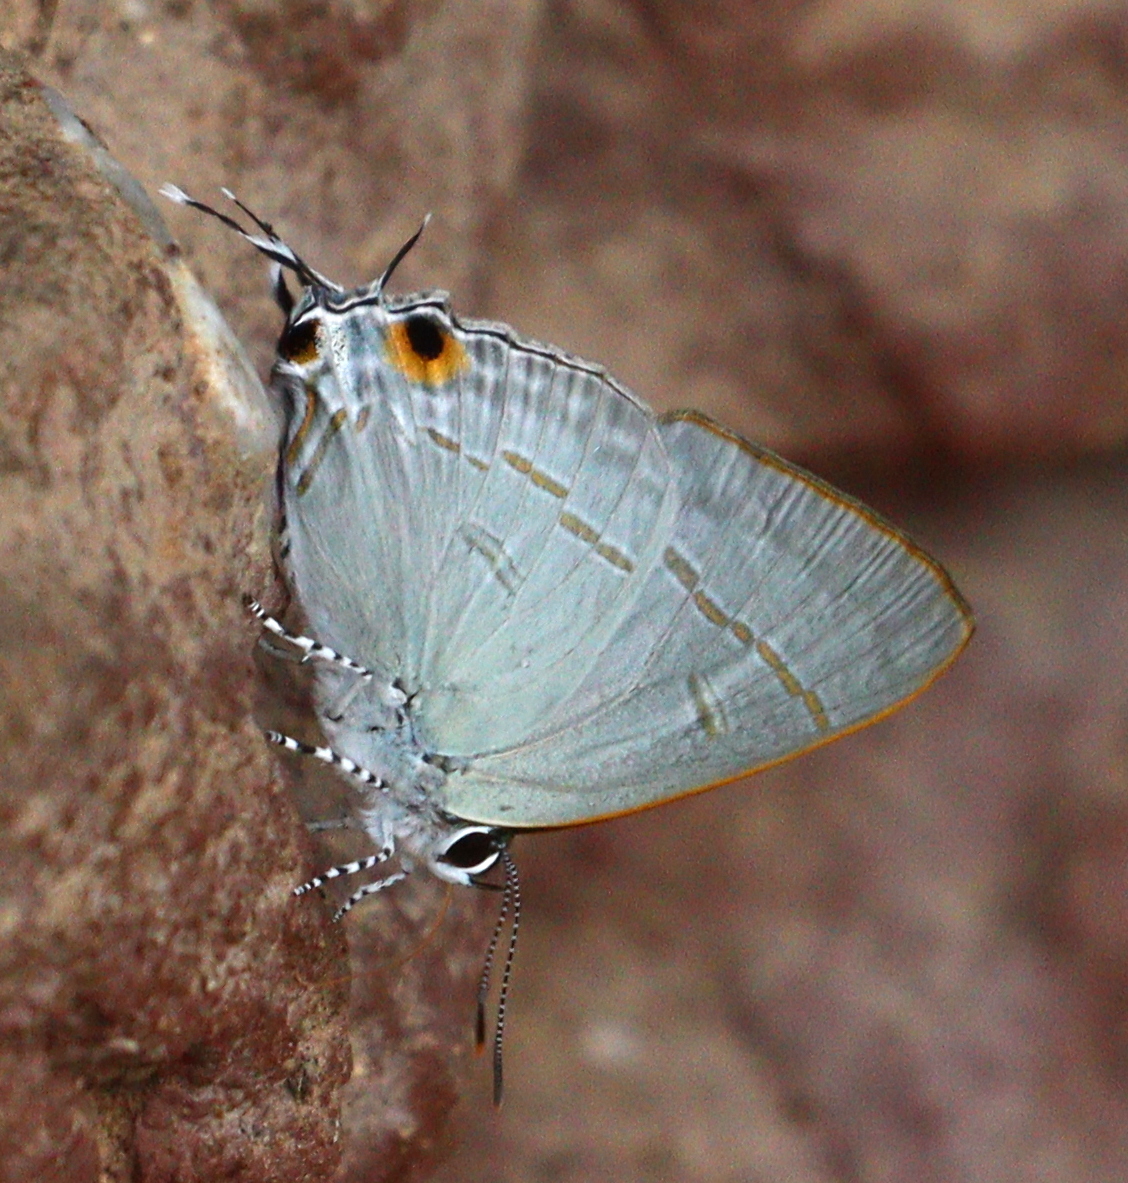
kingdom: Animalia
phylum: Arthropoda
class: Insecta
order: Lepidoptera
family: Lycaenidae
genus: Hypolycaena
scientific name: Hypolycaena erylus
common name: Common tit
